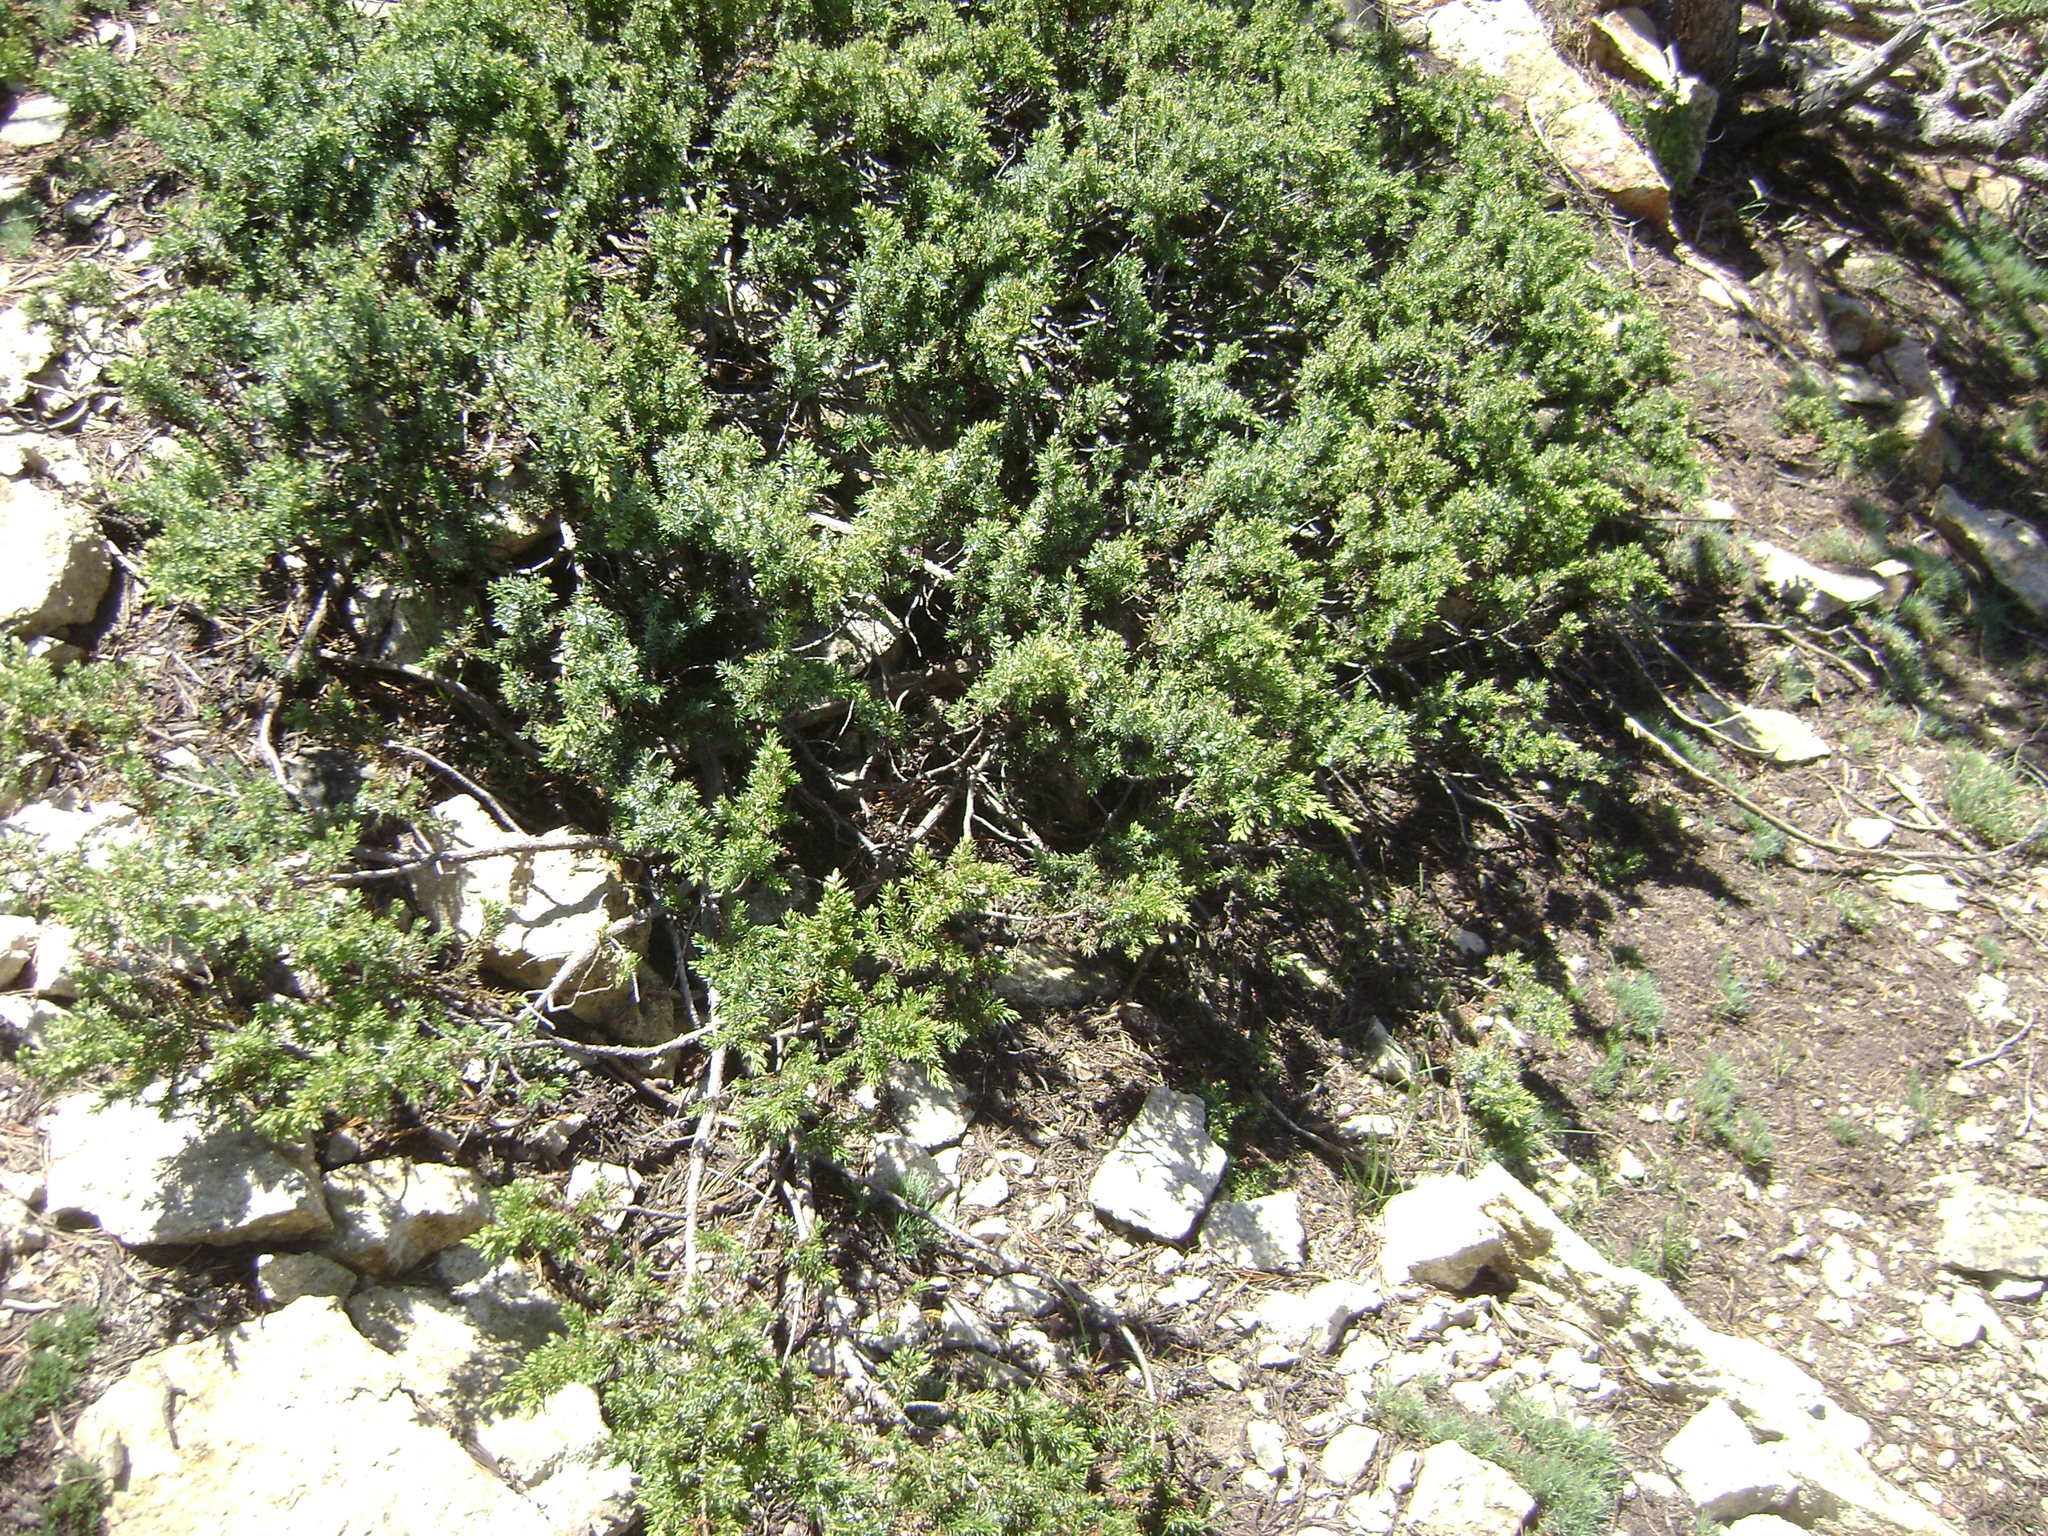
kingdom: Plantae
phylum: Tracheophyta
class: Pinopsida
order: Pinales
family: Cupressaceae
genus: Juniperus
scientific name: Juniperus communis
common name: Common juniper
